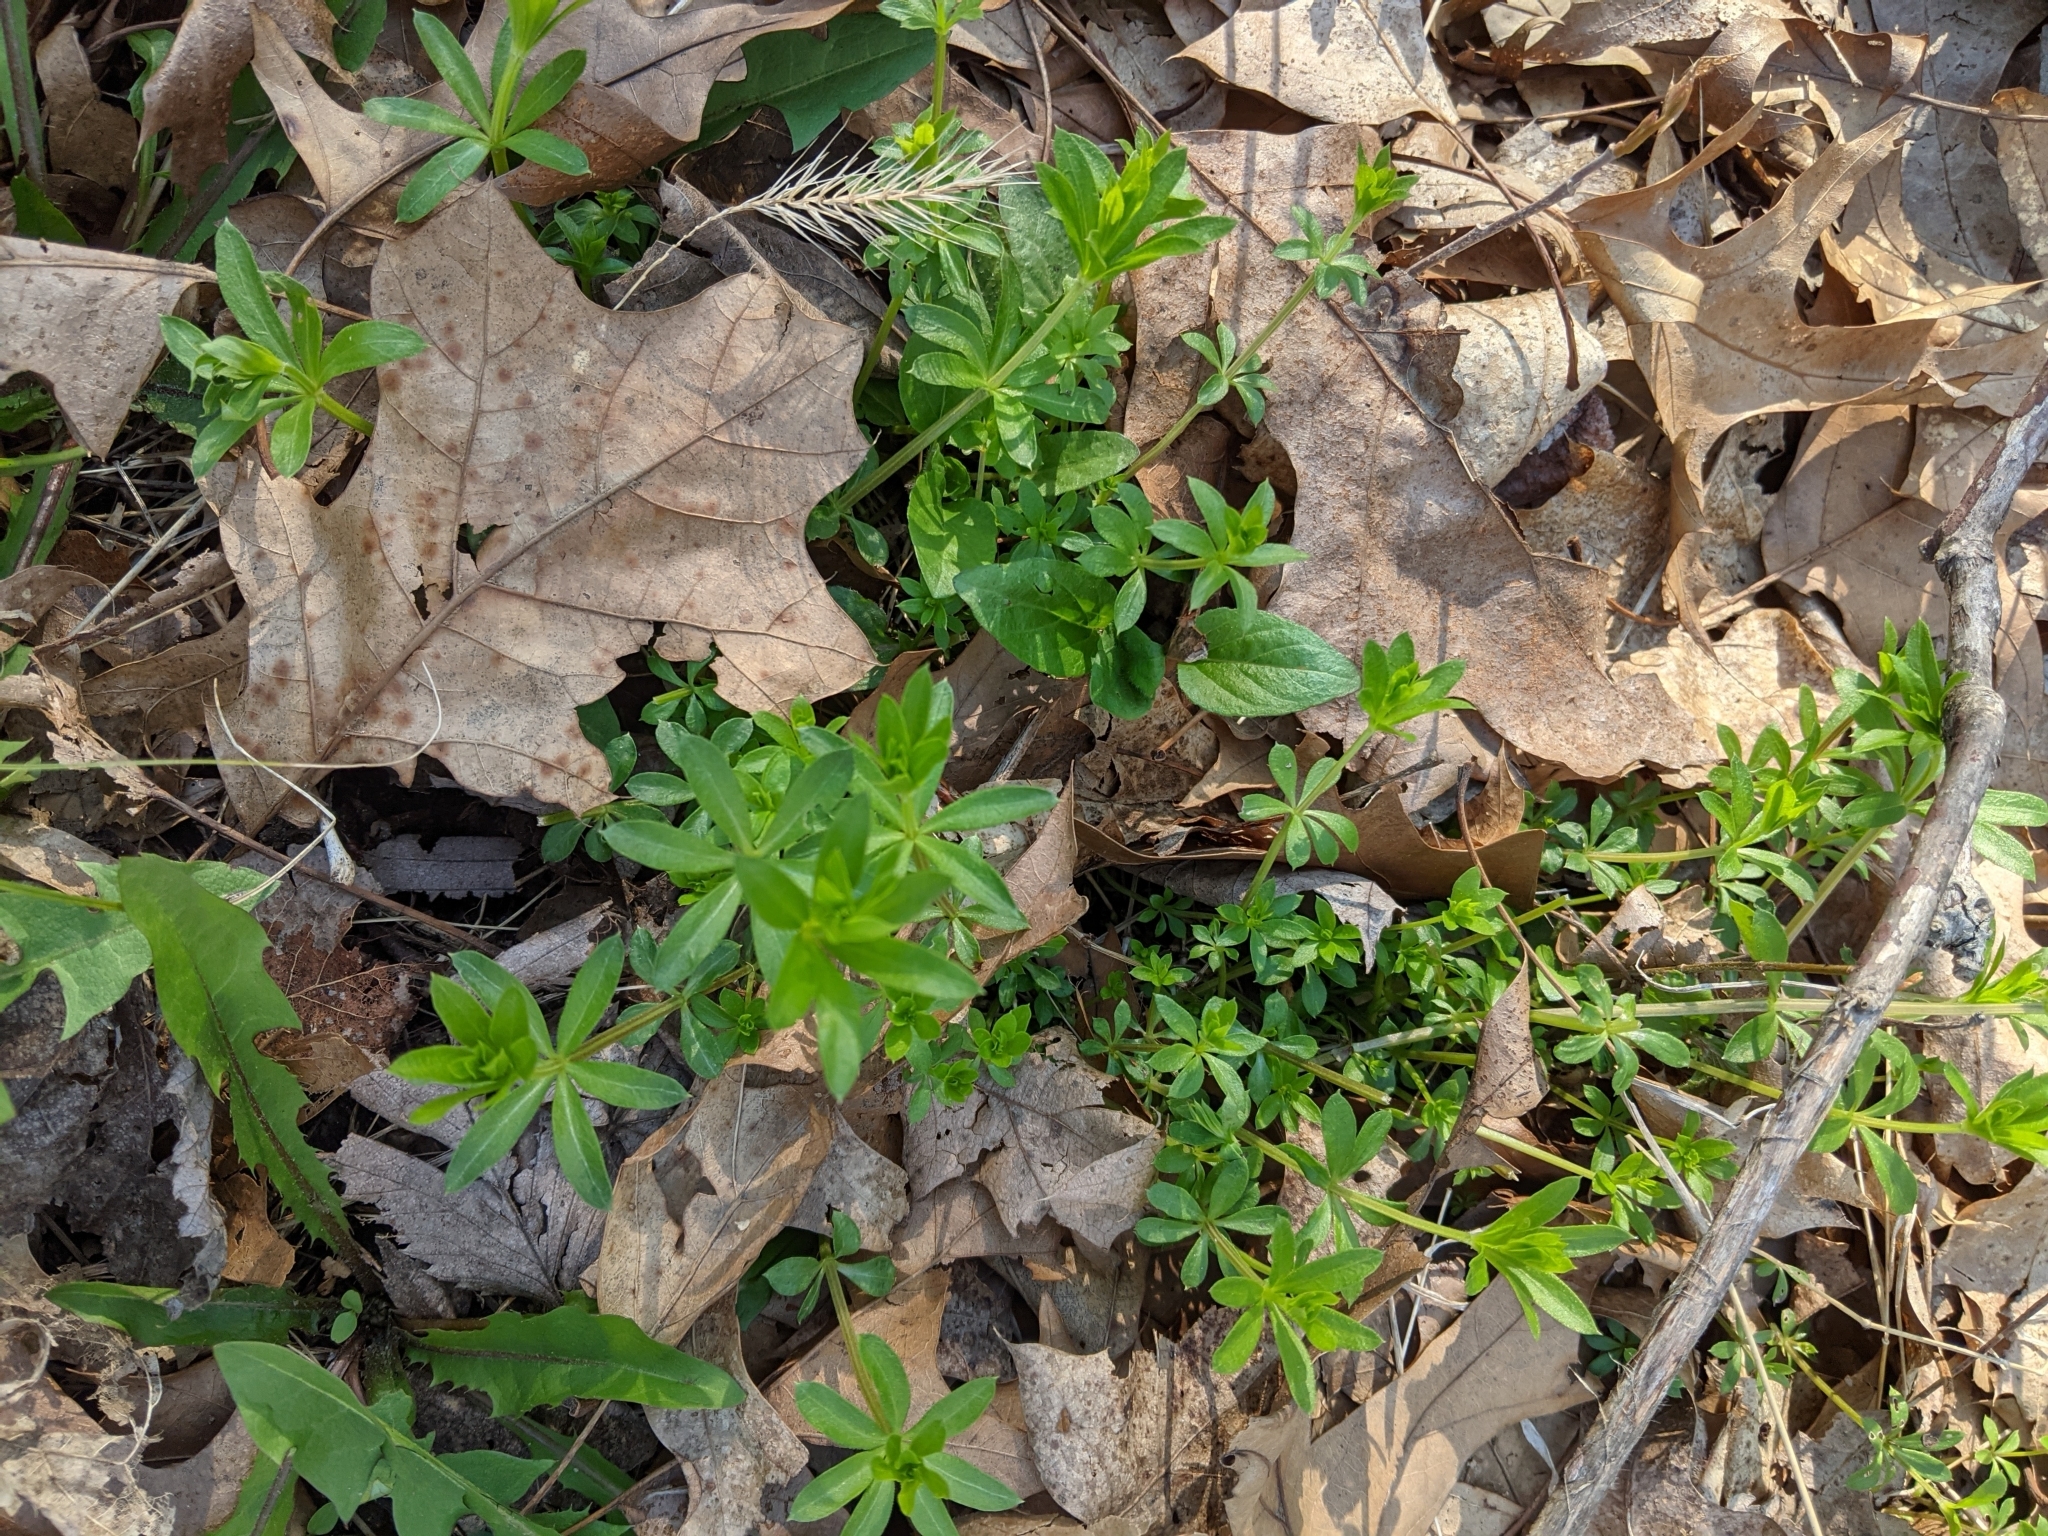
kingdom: Plantae
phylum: Tracheophyta
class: Magnoliopsida
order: Gentianales
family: Rubiaceae
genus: Galium
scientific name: Galium triflorum
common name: Fragrant bedstraw
